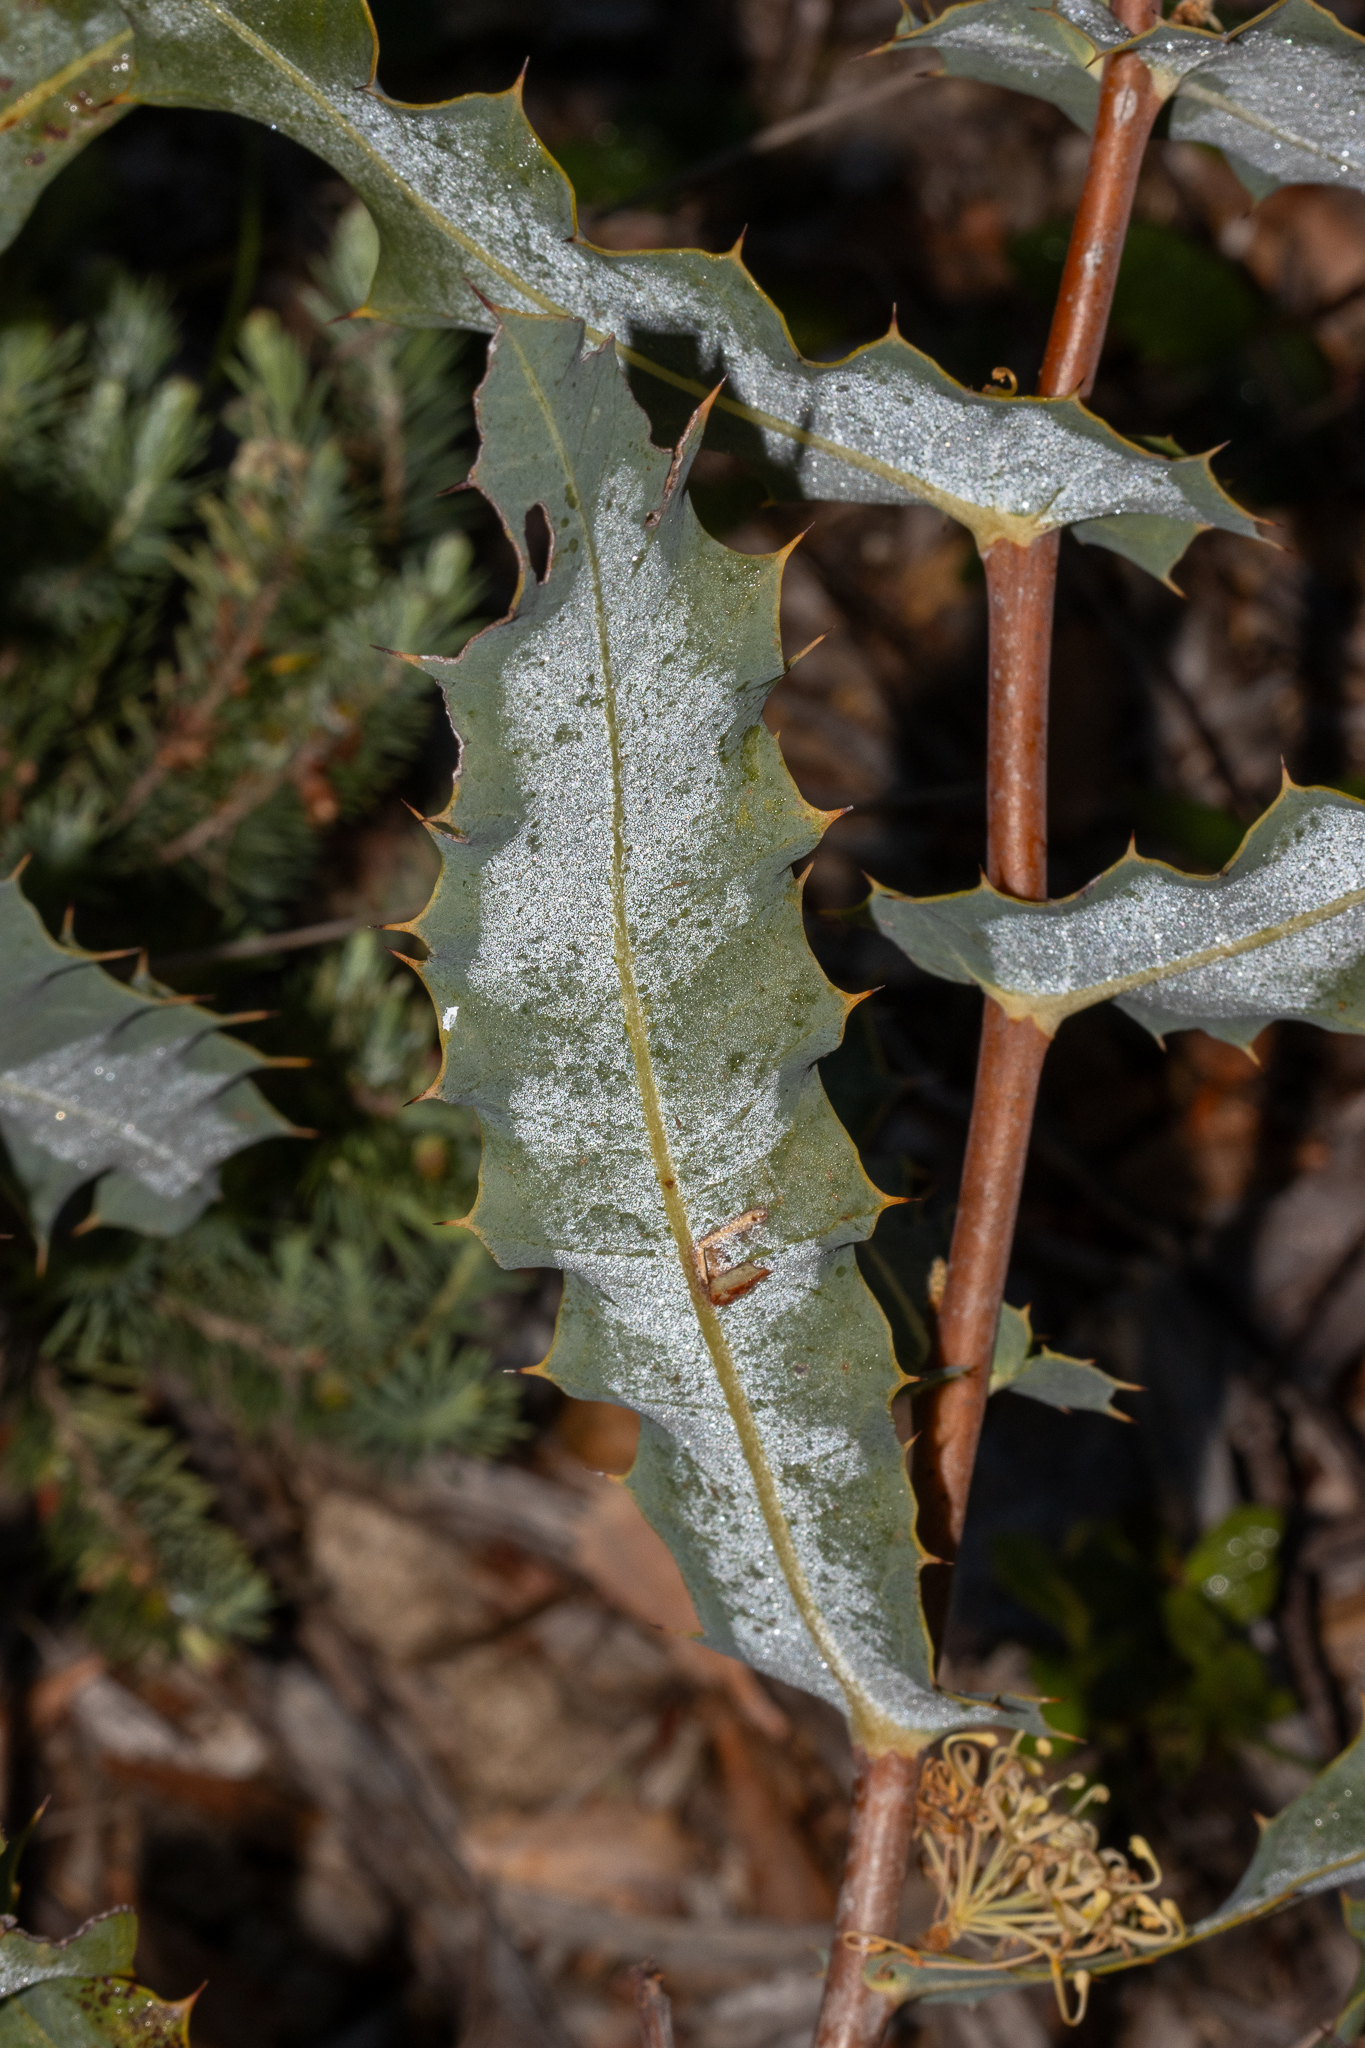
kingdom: Plantae
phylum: Tracheophyta
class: Magnoliopsida
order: Proteales
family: Proteaceae
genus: Hakea
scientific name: Hakea amplexicaulis
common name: Prickly hakea
